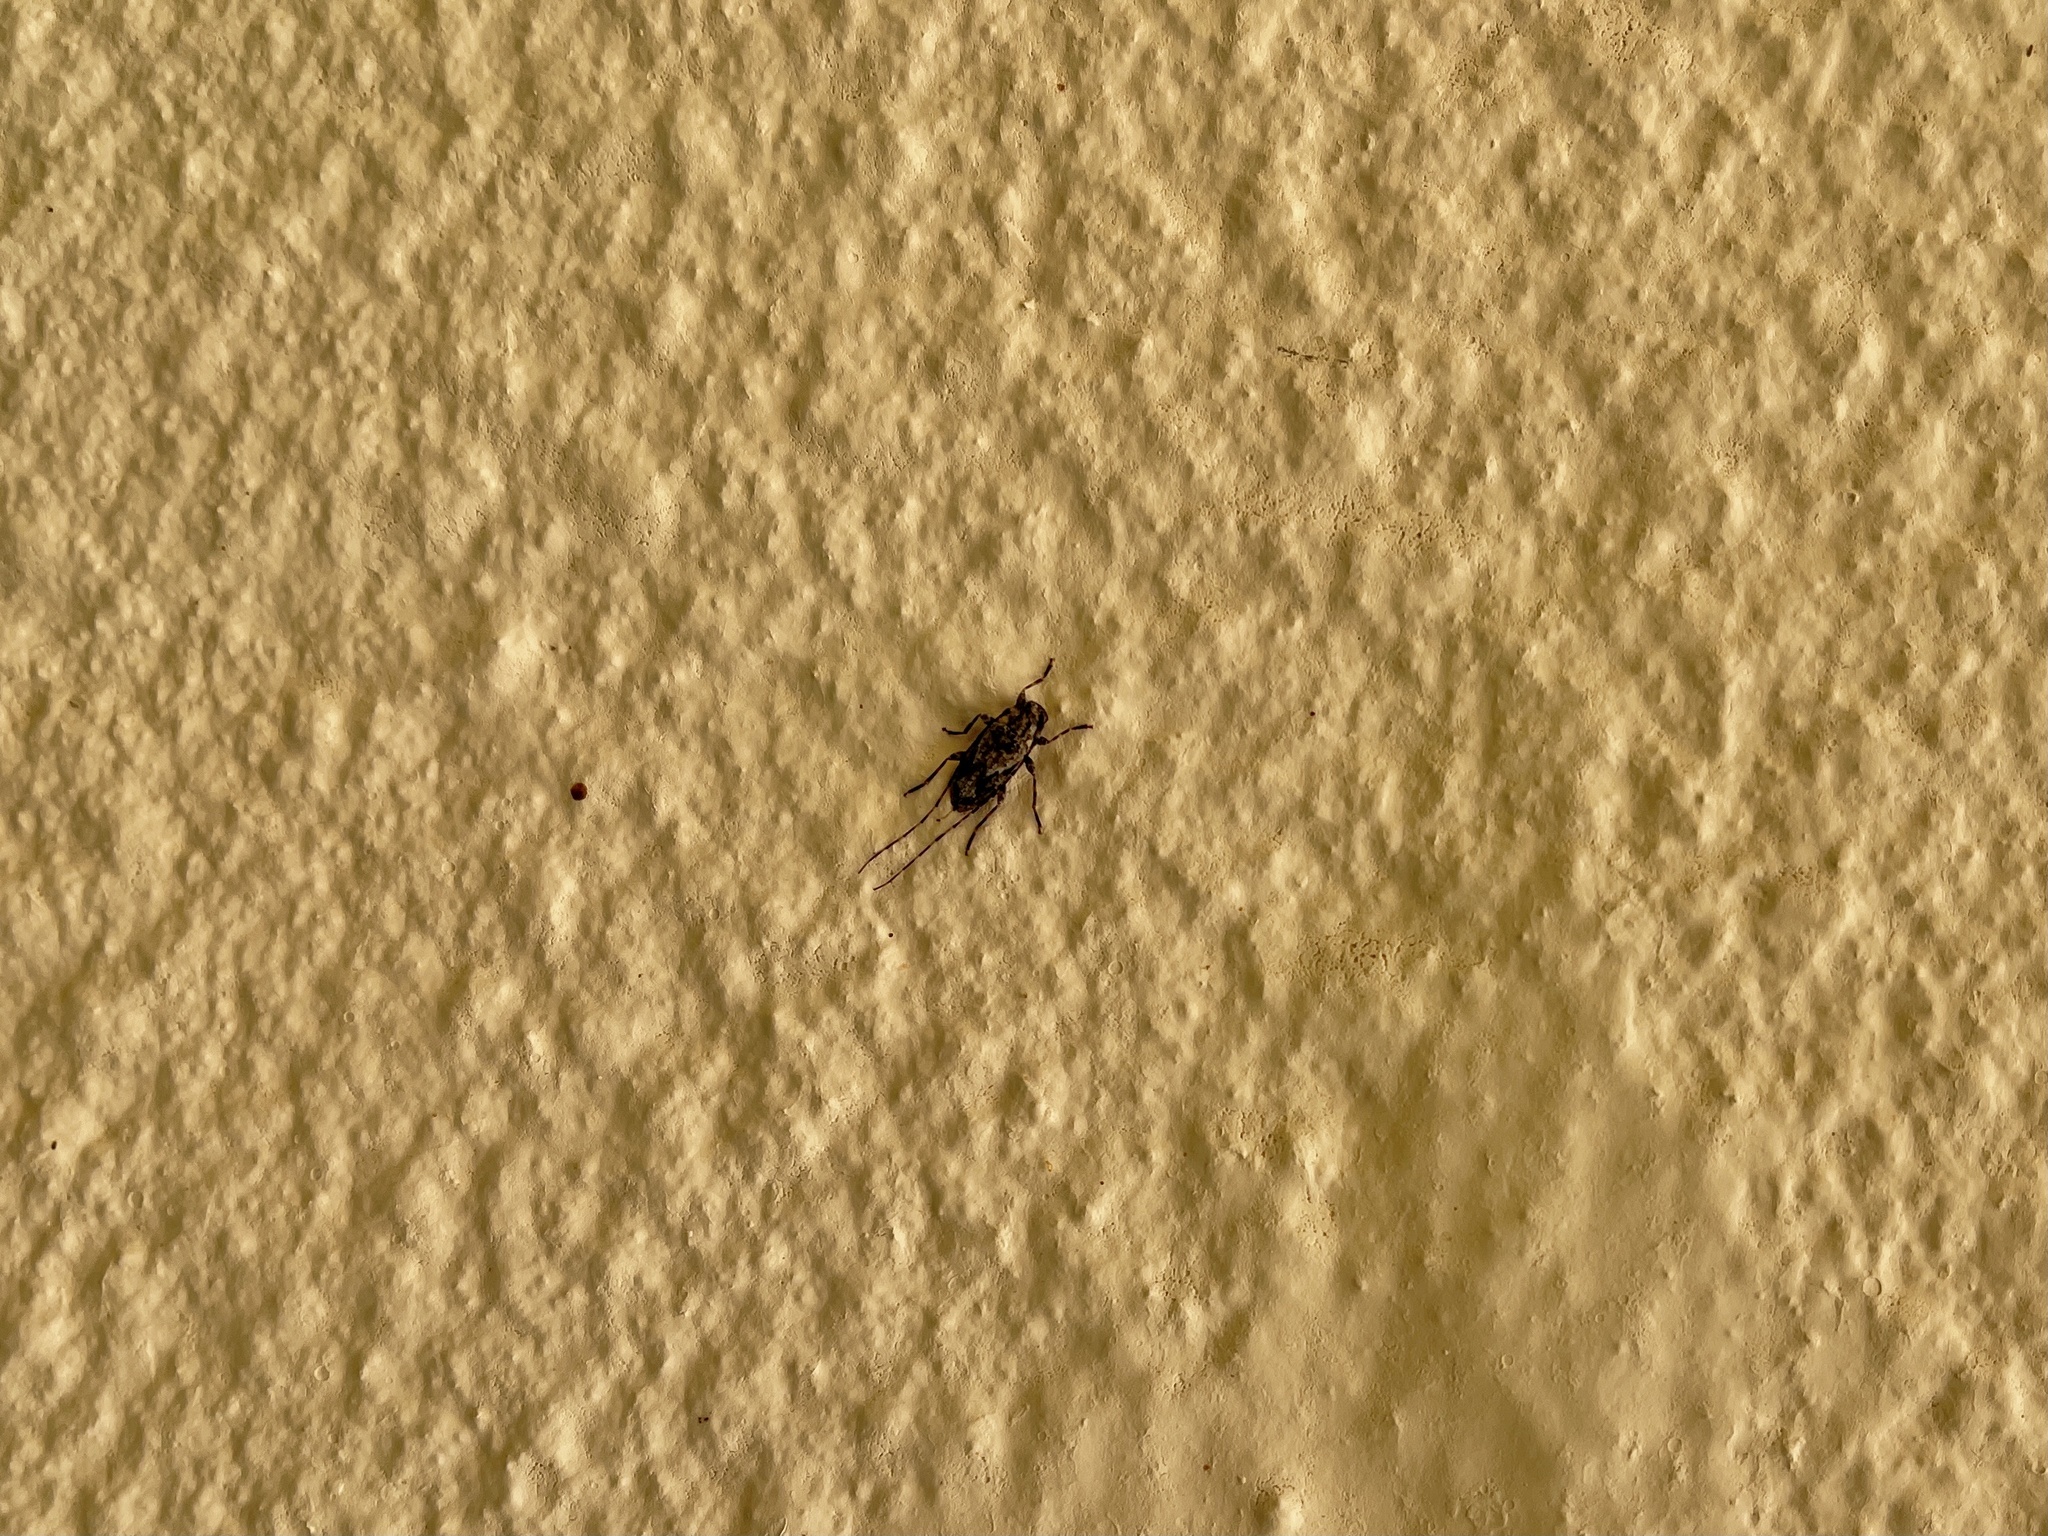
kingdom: Animalia
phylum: Arthropoda
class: Insecta
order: Coleoptera
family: Cerambycidae
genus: Eutrichillus
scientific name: Eutrichillus canescens
